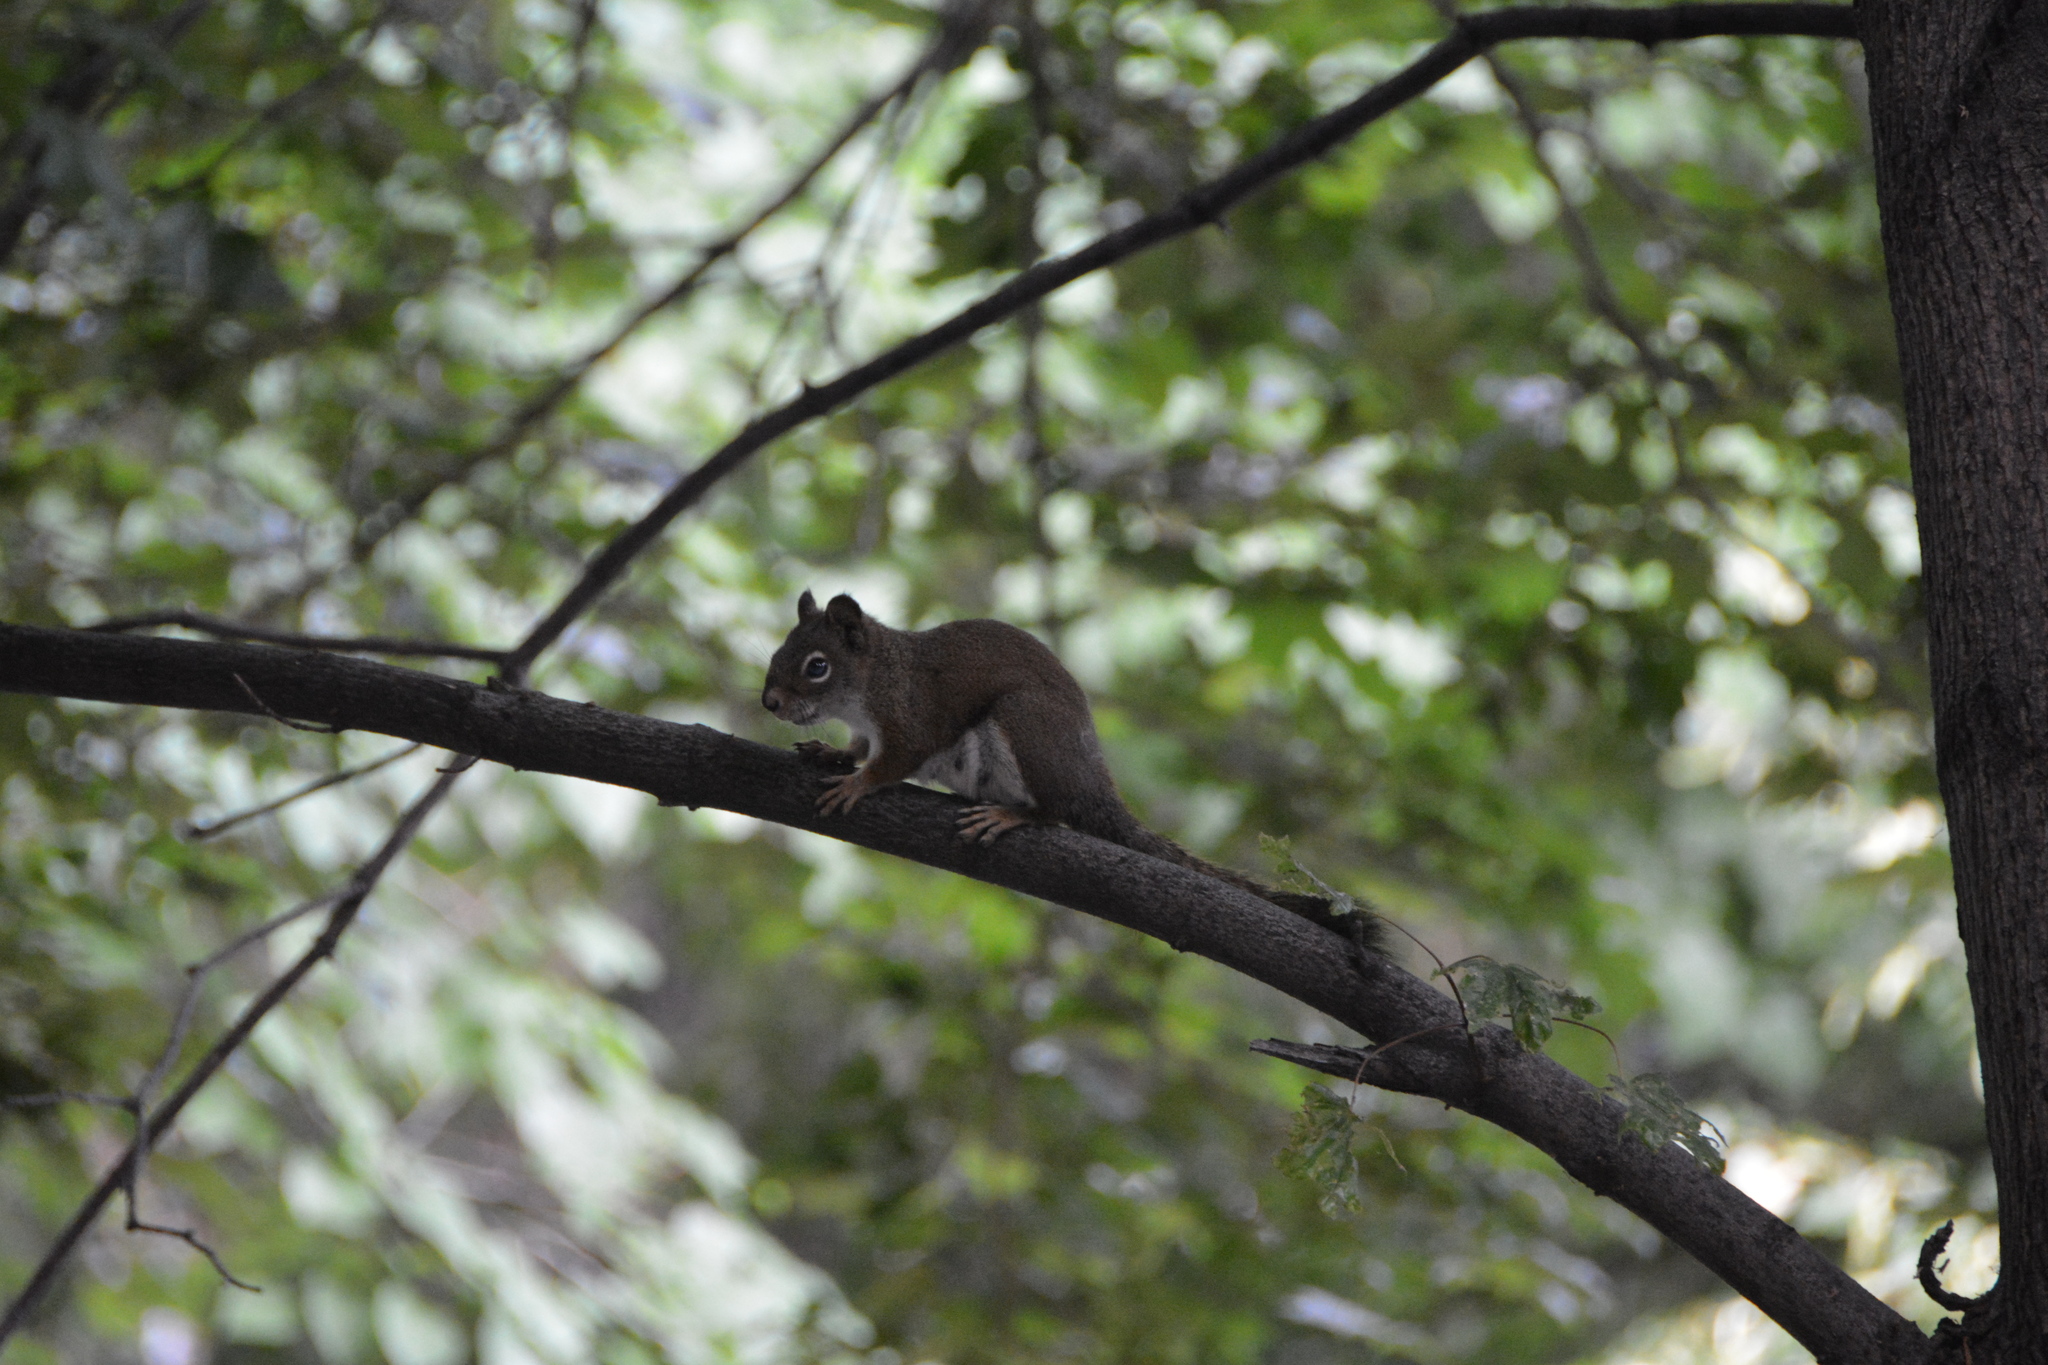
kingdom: Animalia
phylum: Chordata
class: Mammalia
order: Rodentia
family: Sciuridae
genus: Tamiasciurus
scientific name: Tamiasciurus hudsonicus
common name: Red squirrel
